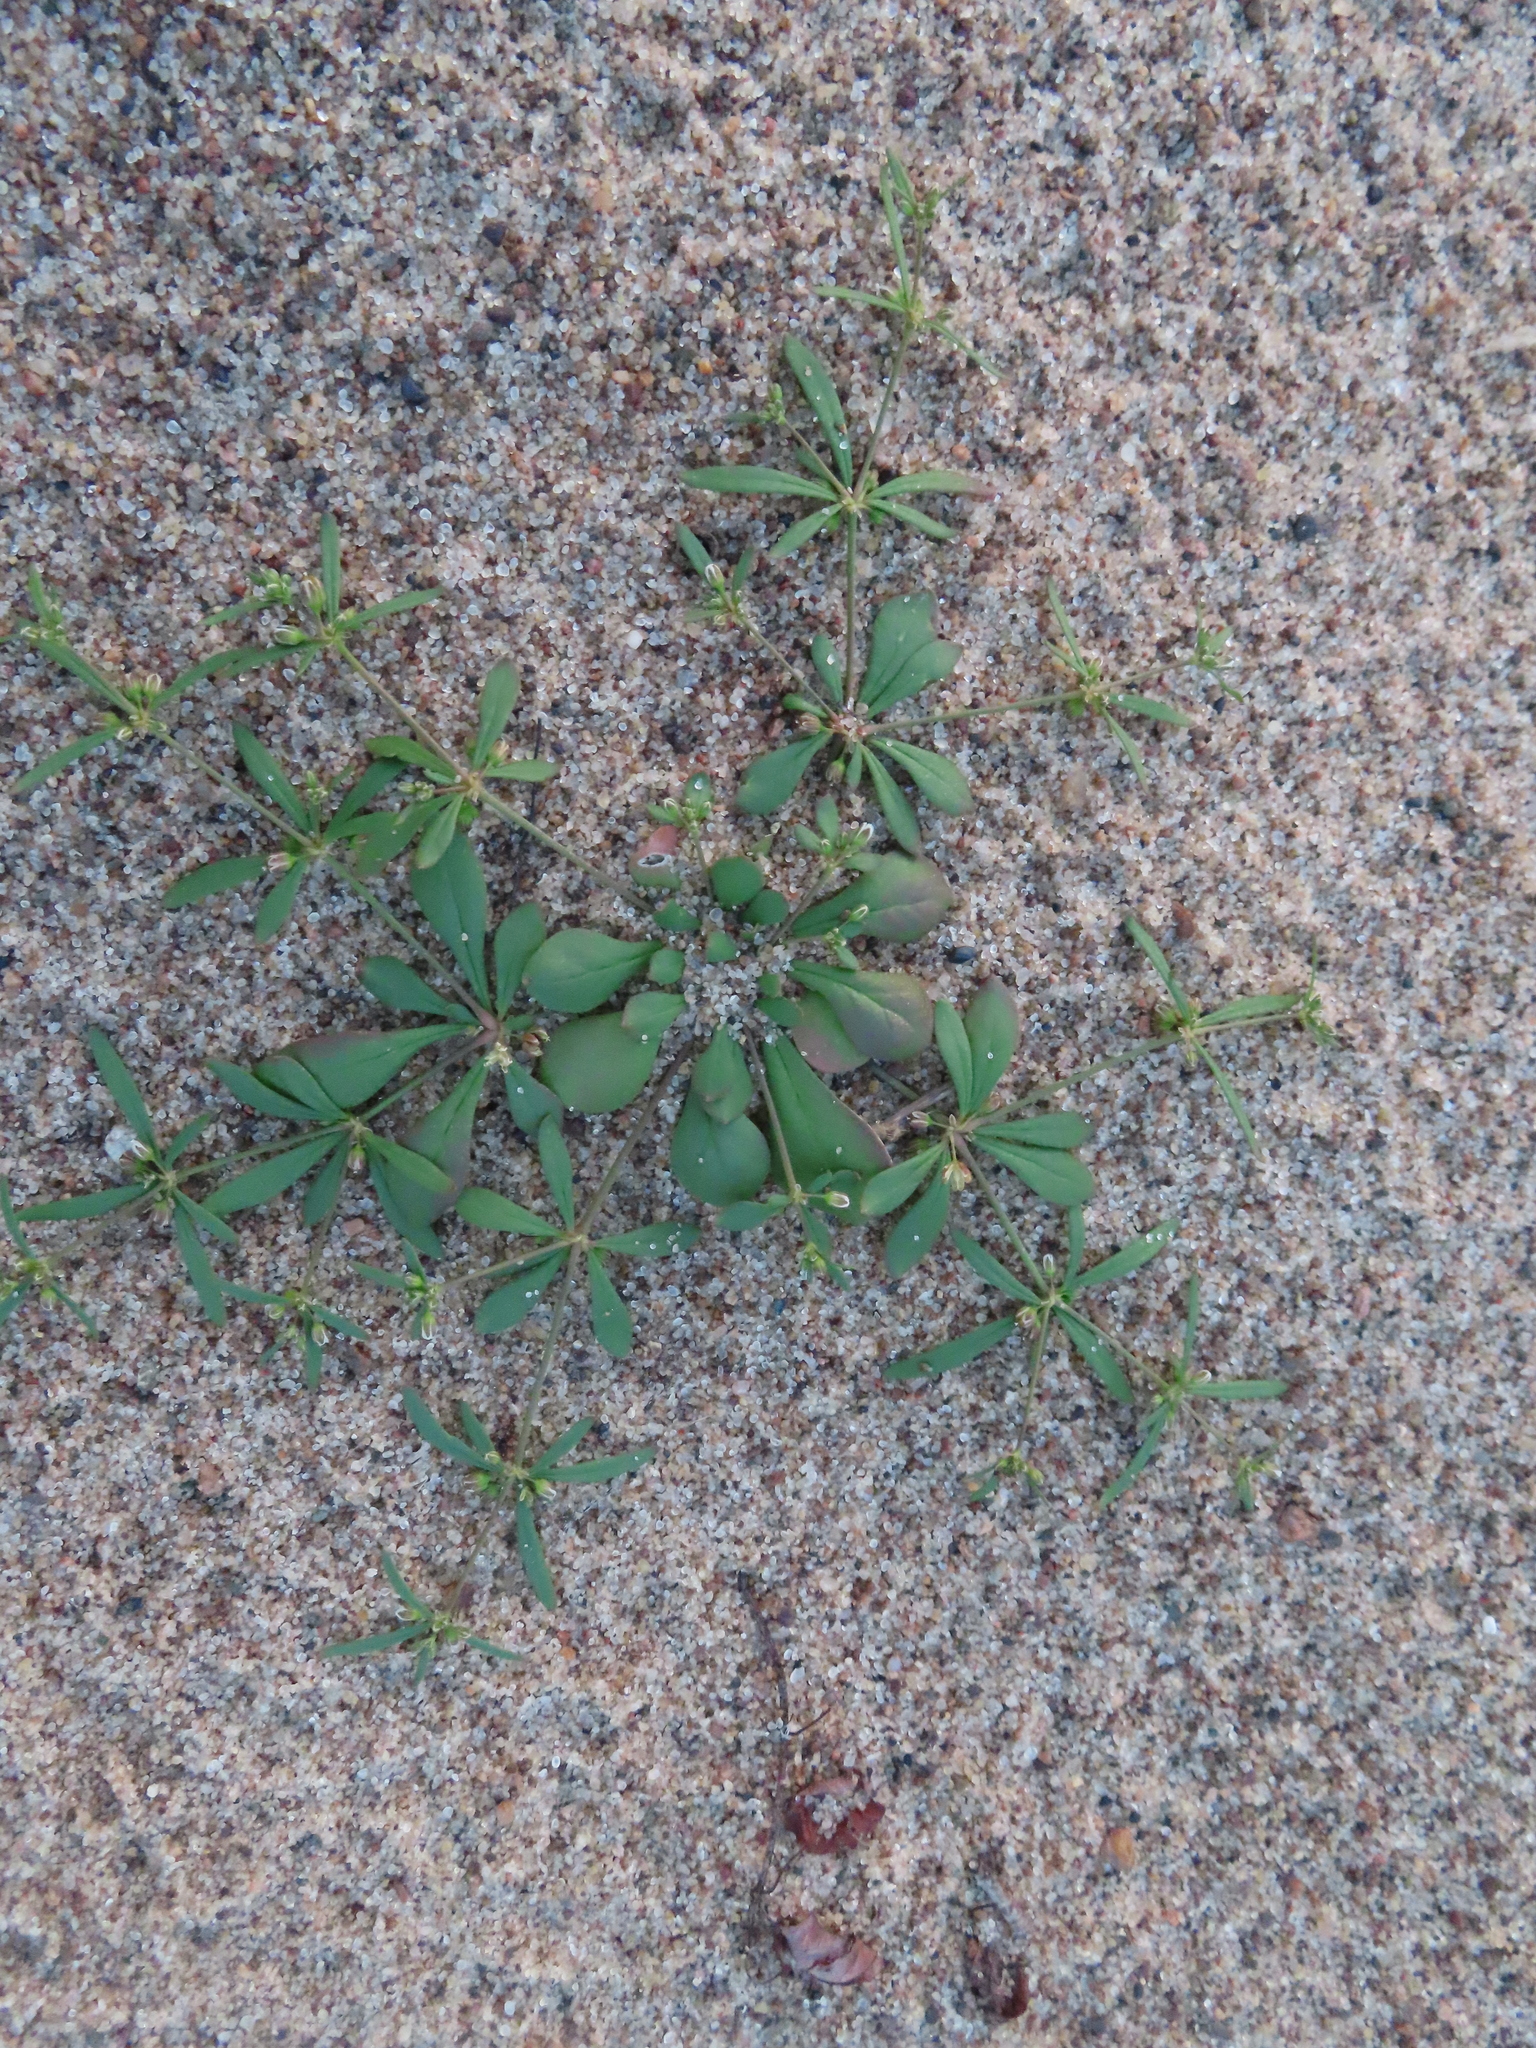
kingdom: Plantae
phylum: Tracheophyta
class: Magnoliopsida
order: Caryophyllales
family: Molluginaceae
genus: Mollugo
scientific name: Mollugo verticillata
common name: Green carpetweed
